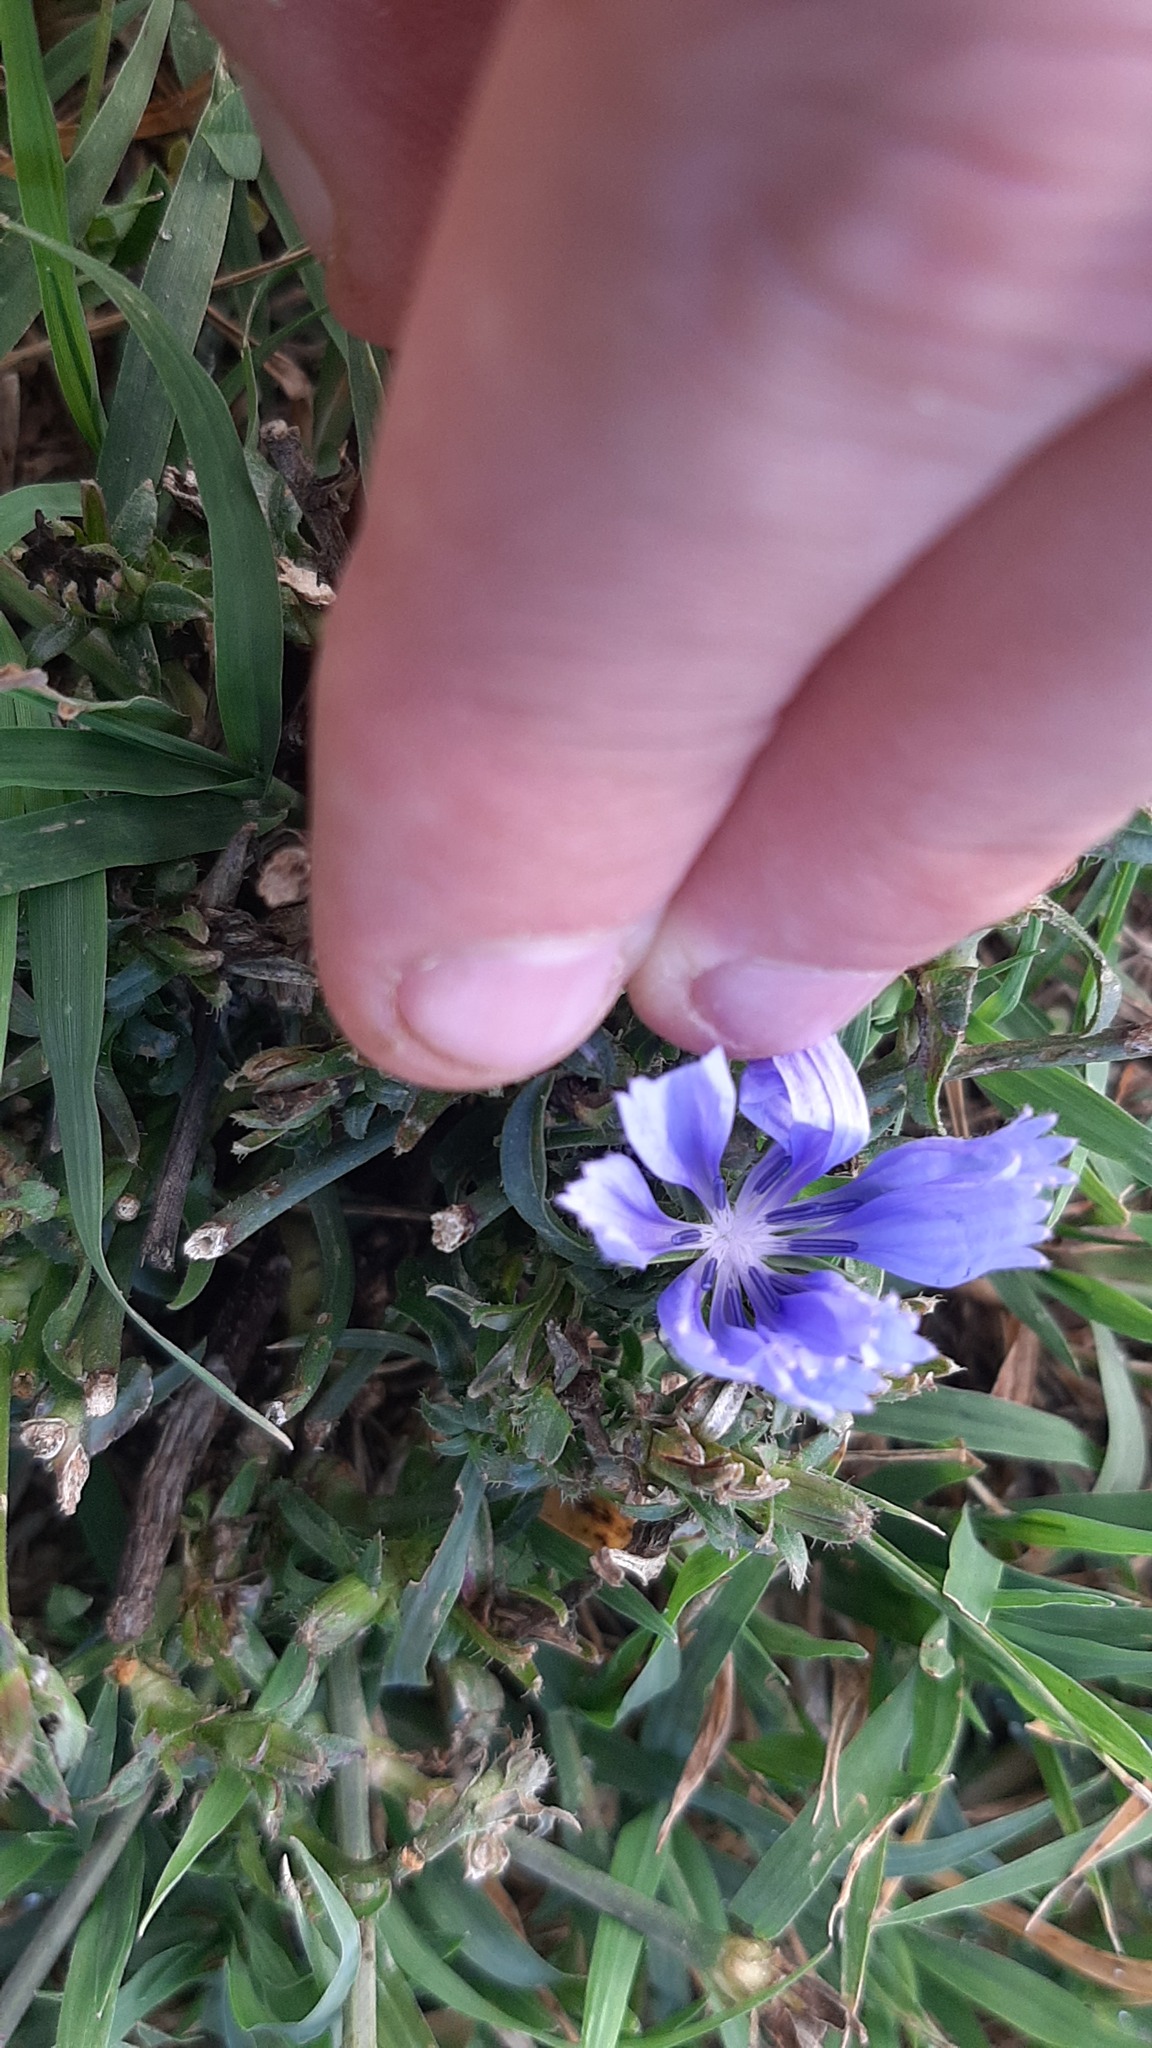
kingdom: Plantae
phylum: Tracheophyta
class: Magnoliopsida
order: Asterales
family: Asteraceae
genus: Cichorium
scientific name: Cichorium intybus
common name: Chicory
